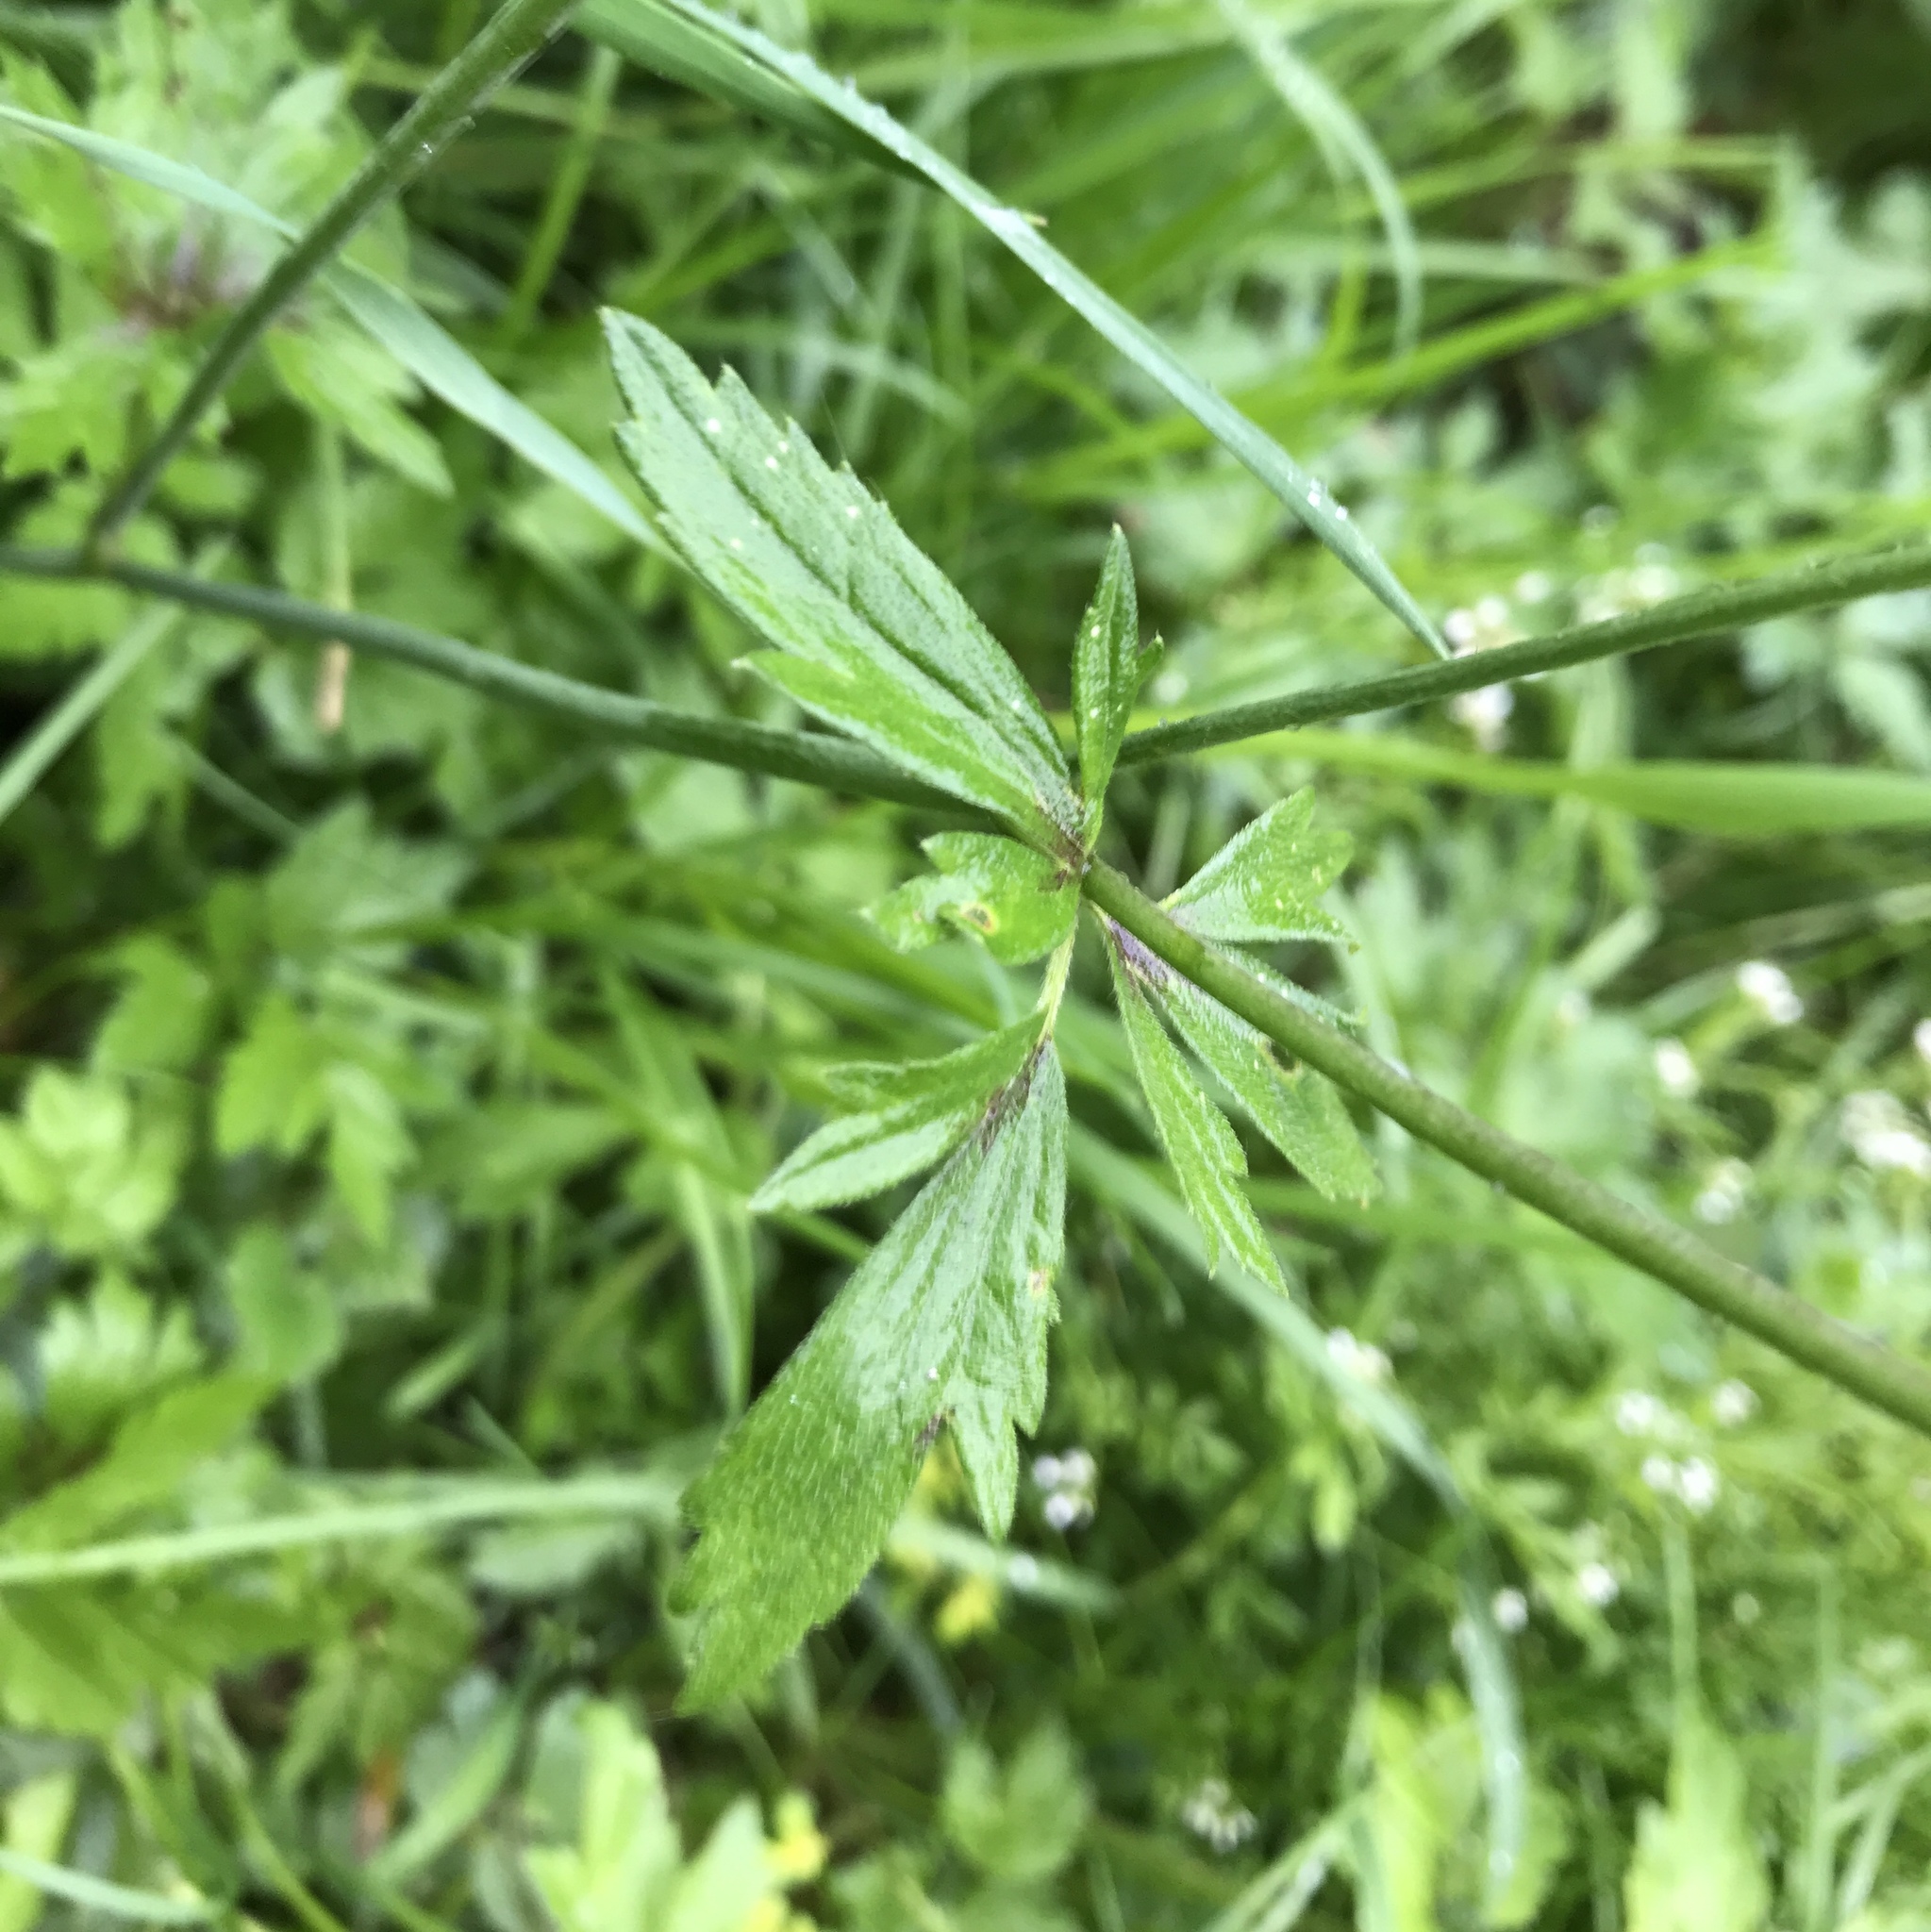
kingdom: Plantae
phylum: Tracheophyta
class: Magnoliopsida
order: Ranunculales
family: Ranunculaceae
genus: Ranunculus
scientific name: Ranunculus acris
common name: Meadow buttercup
